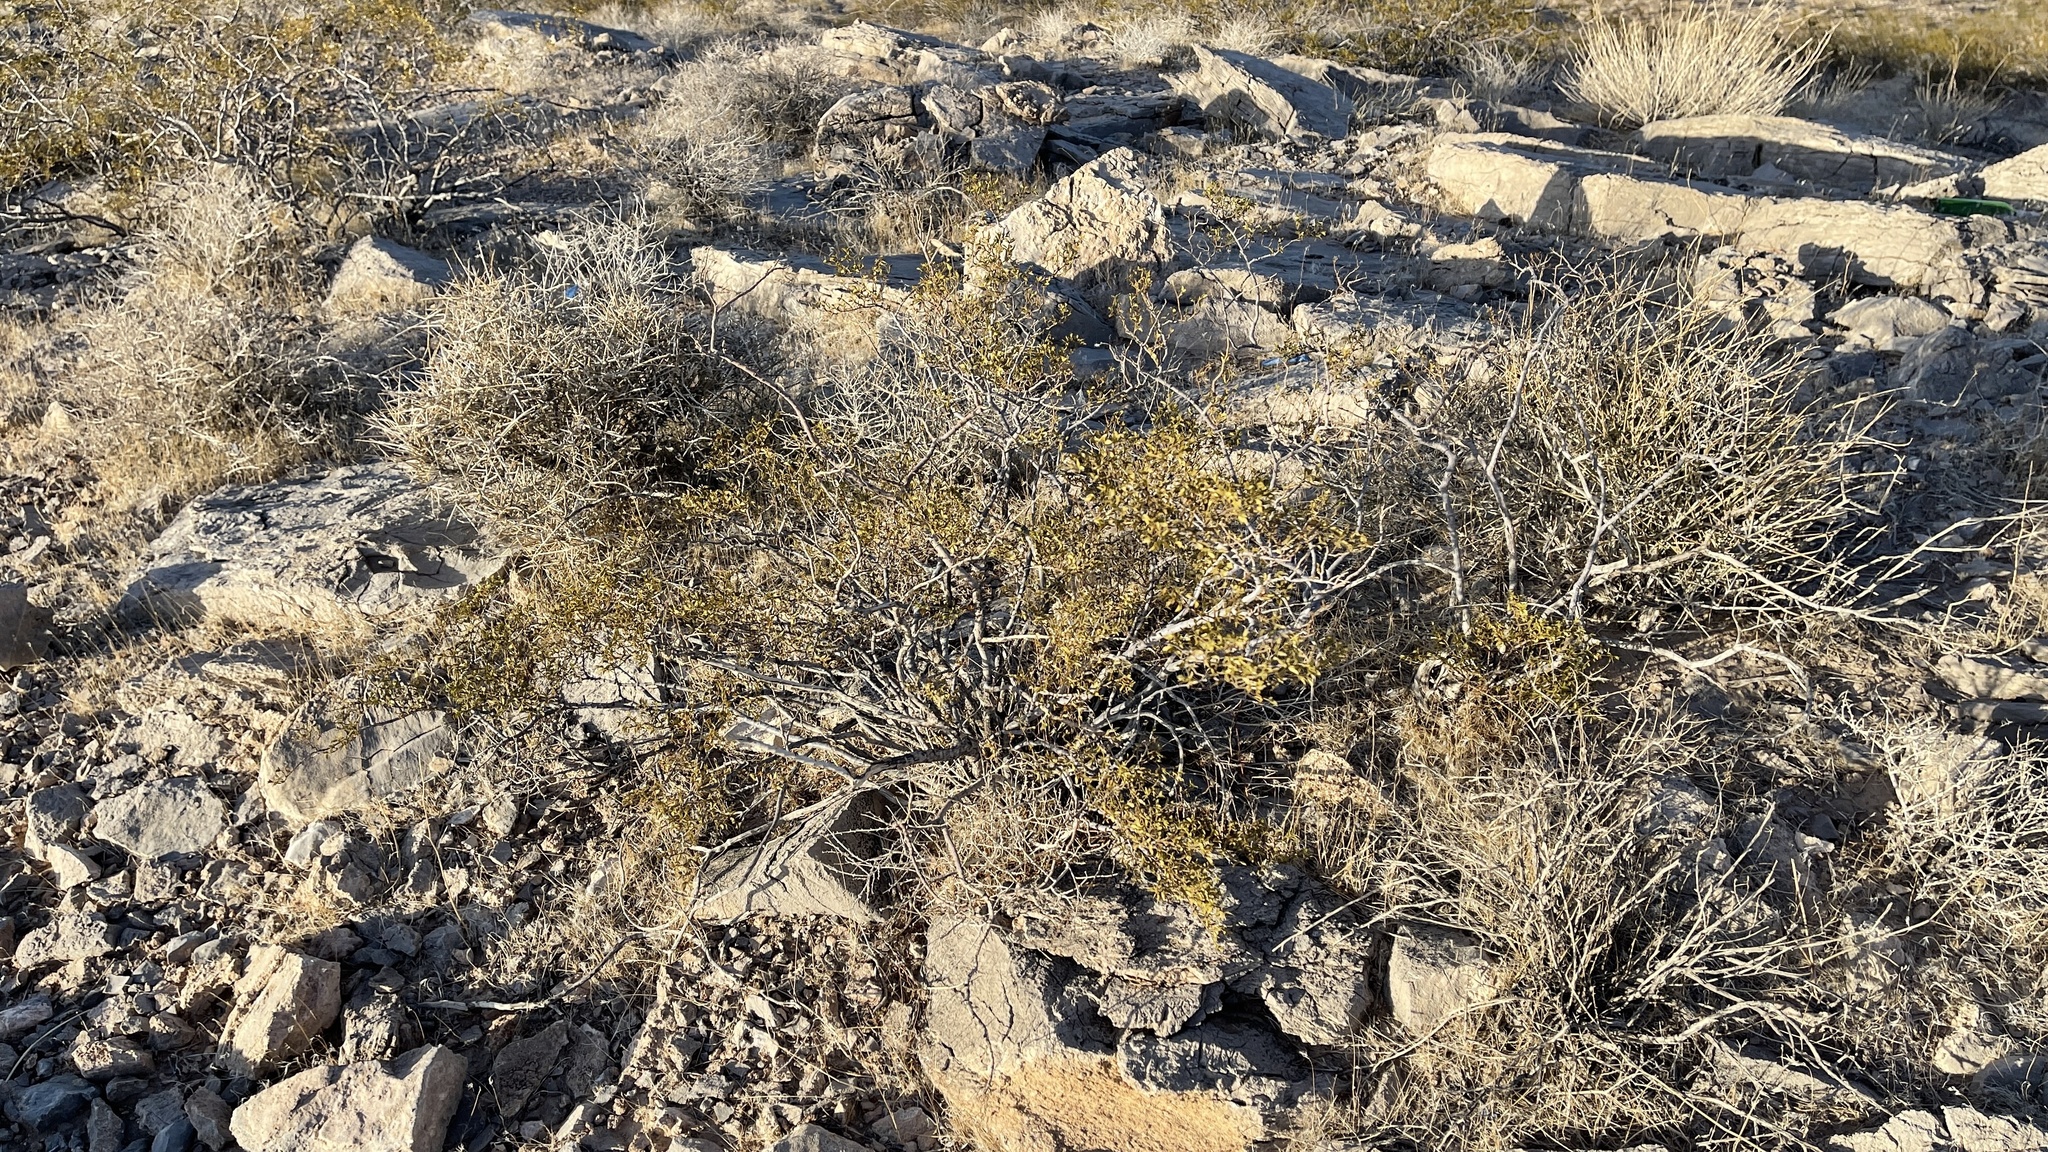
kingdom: Plantae
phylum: Tracheophyta
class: Magnoliopsida
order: Zygophyllales
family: Zygophyllaceae
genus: Larrea
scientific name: Larrea tridentata
